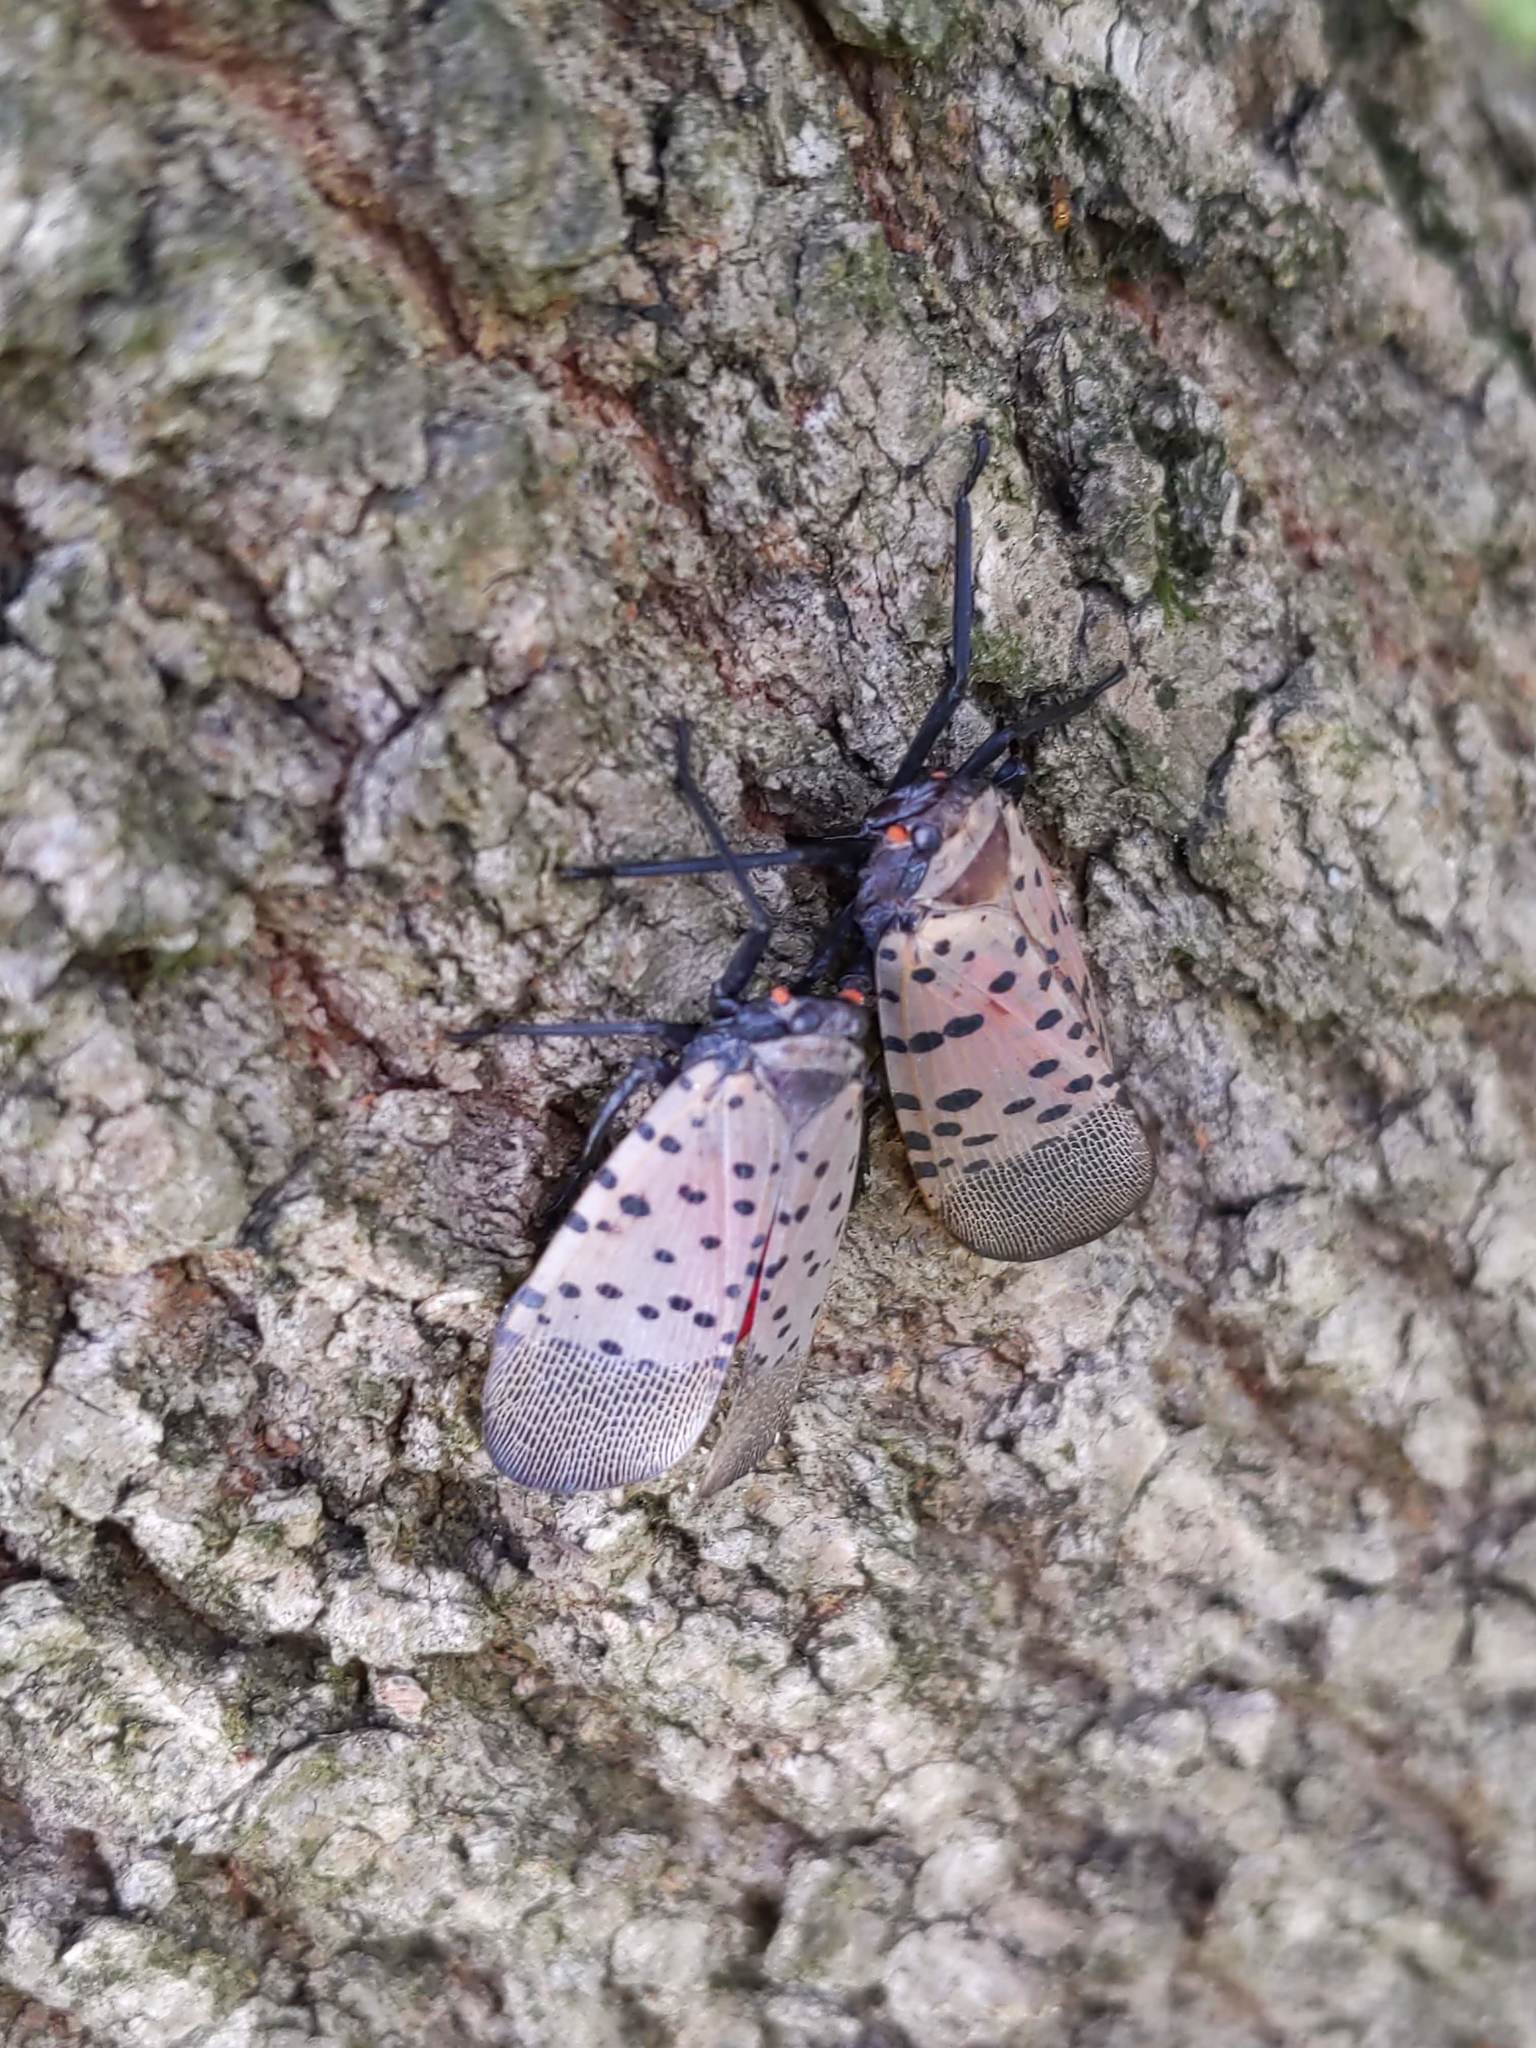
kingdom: Animalia
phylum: Arthropoda
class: Insecta
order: Hemiptera
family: Fulgoridae
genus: Lycorma
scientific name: Lycorma delicatula
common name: Spotted lanternfly
